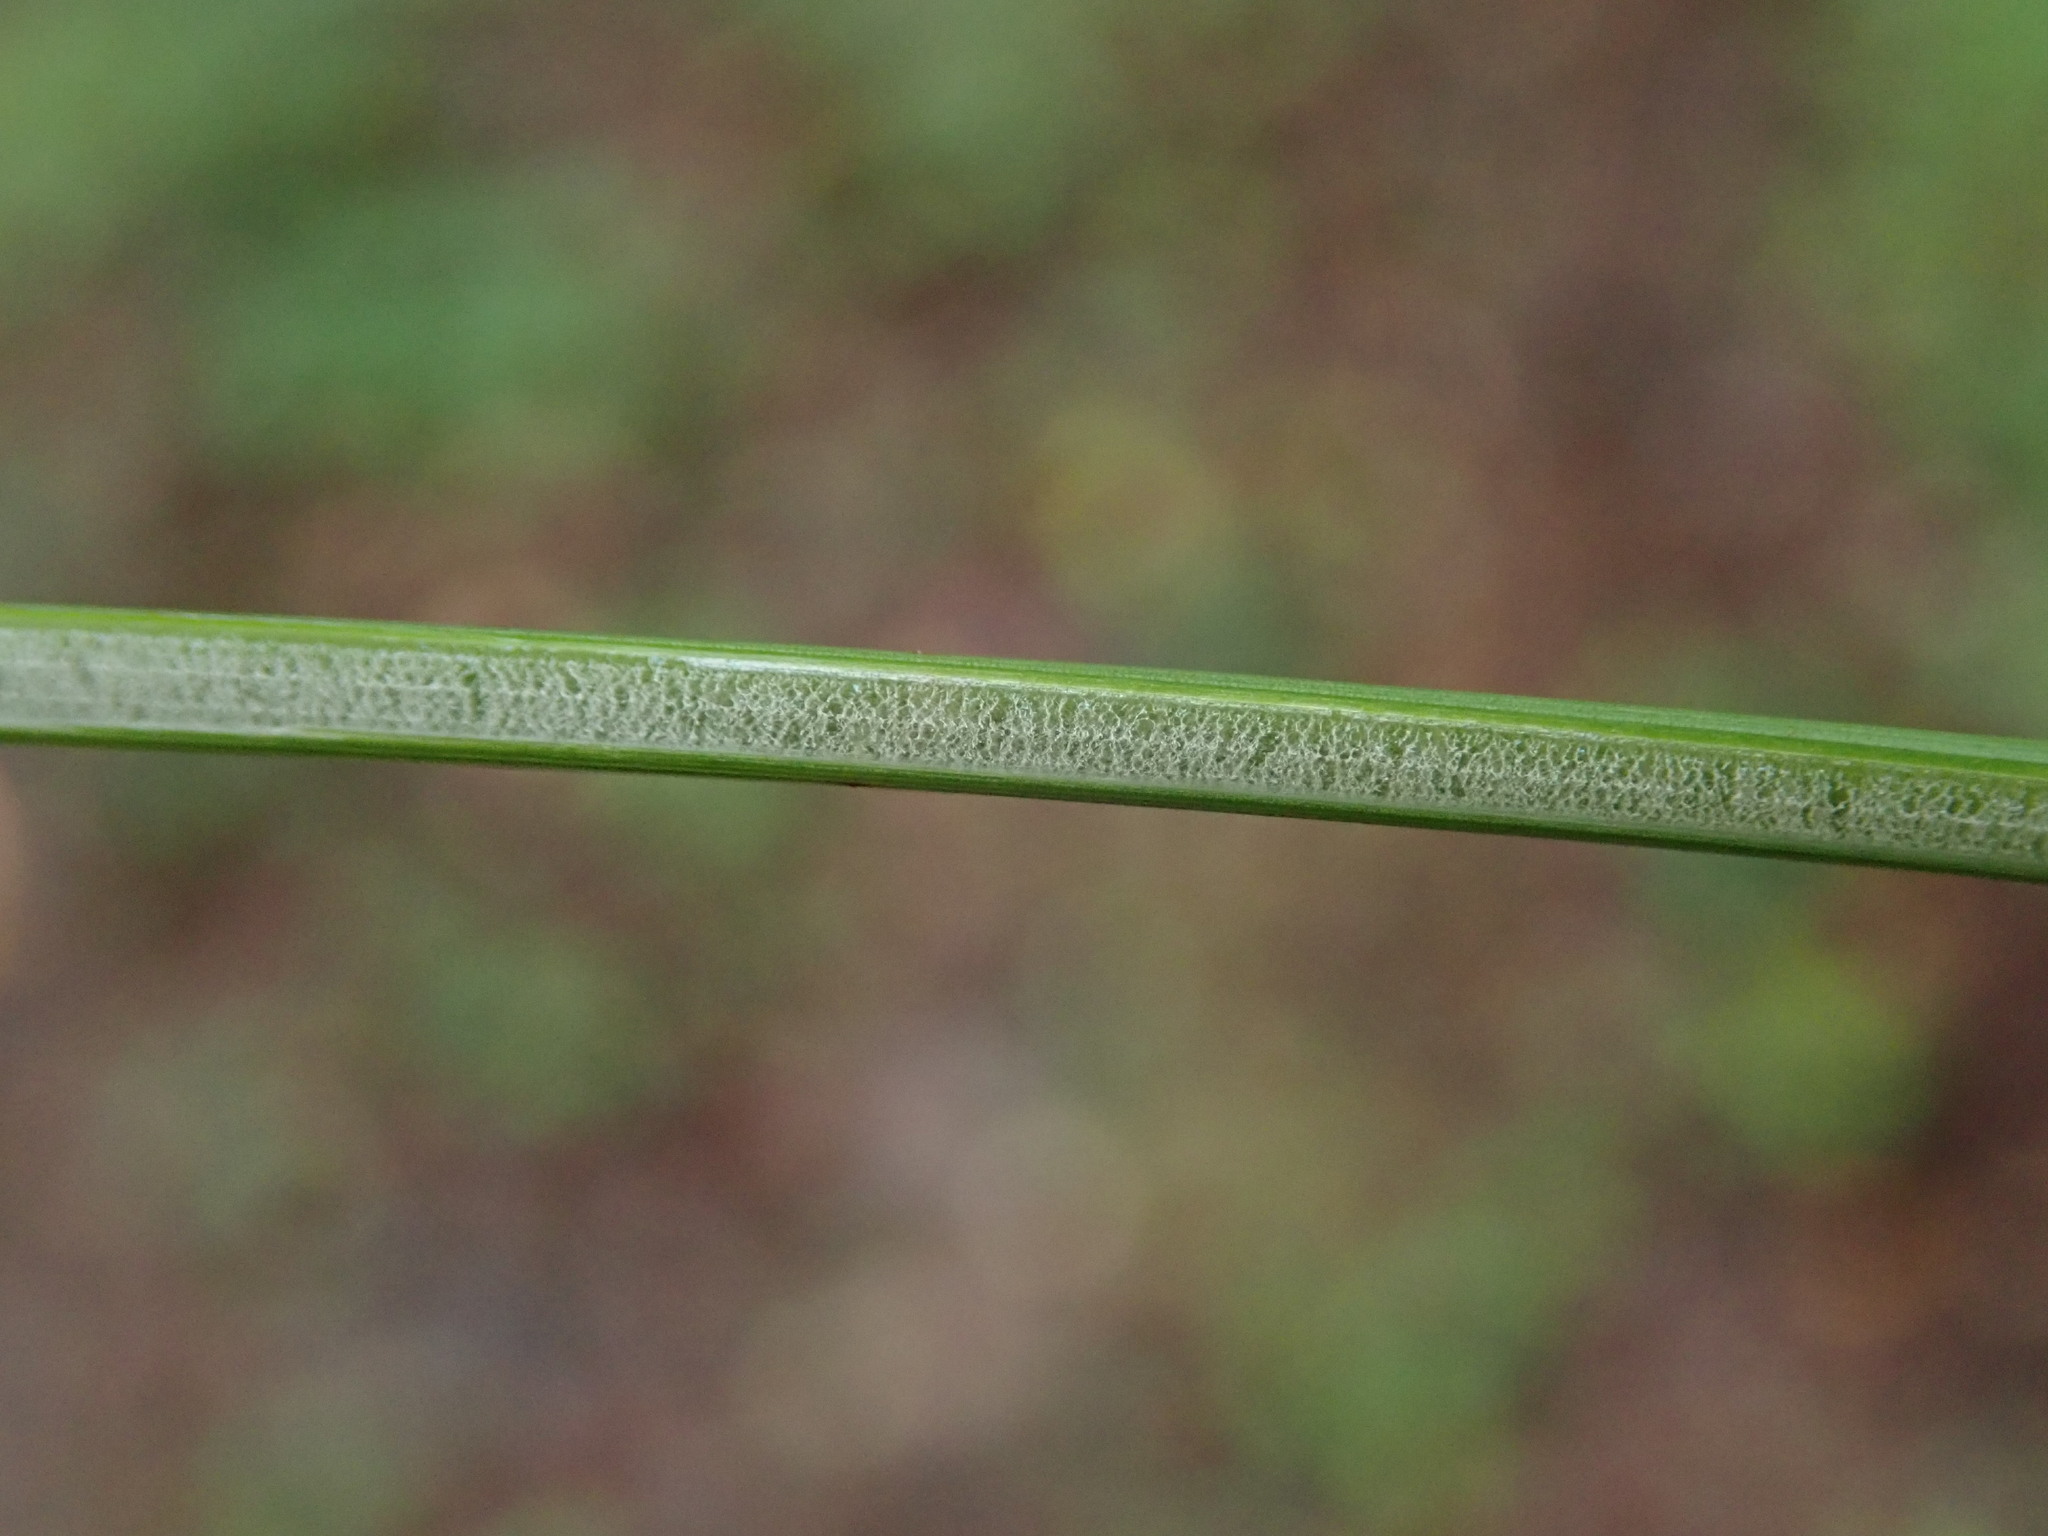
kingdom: Plantae
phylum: Tracheophyta
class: Liliopsida
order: Poales
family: Juncaceae
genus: Juncus
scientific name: Juncus effusus
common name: Soft rush
